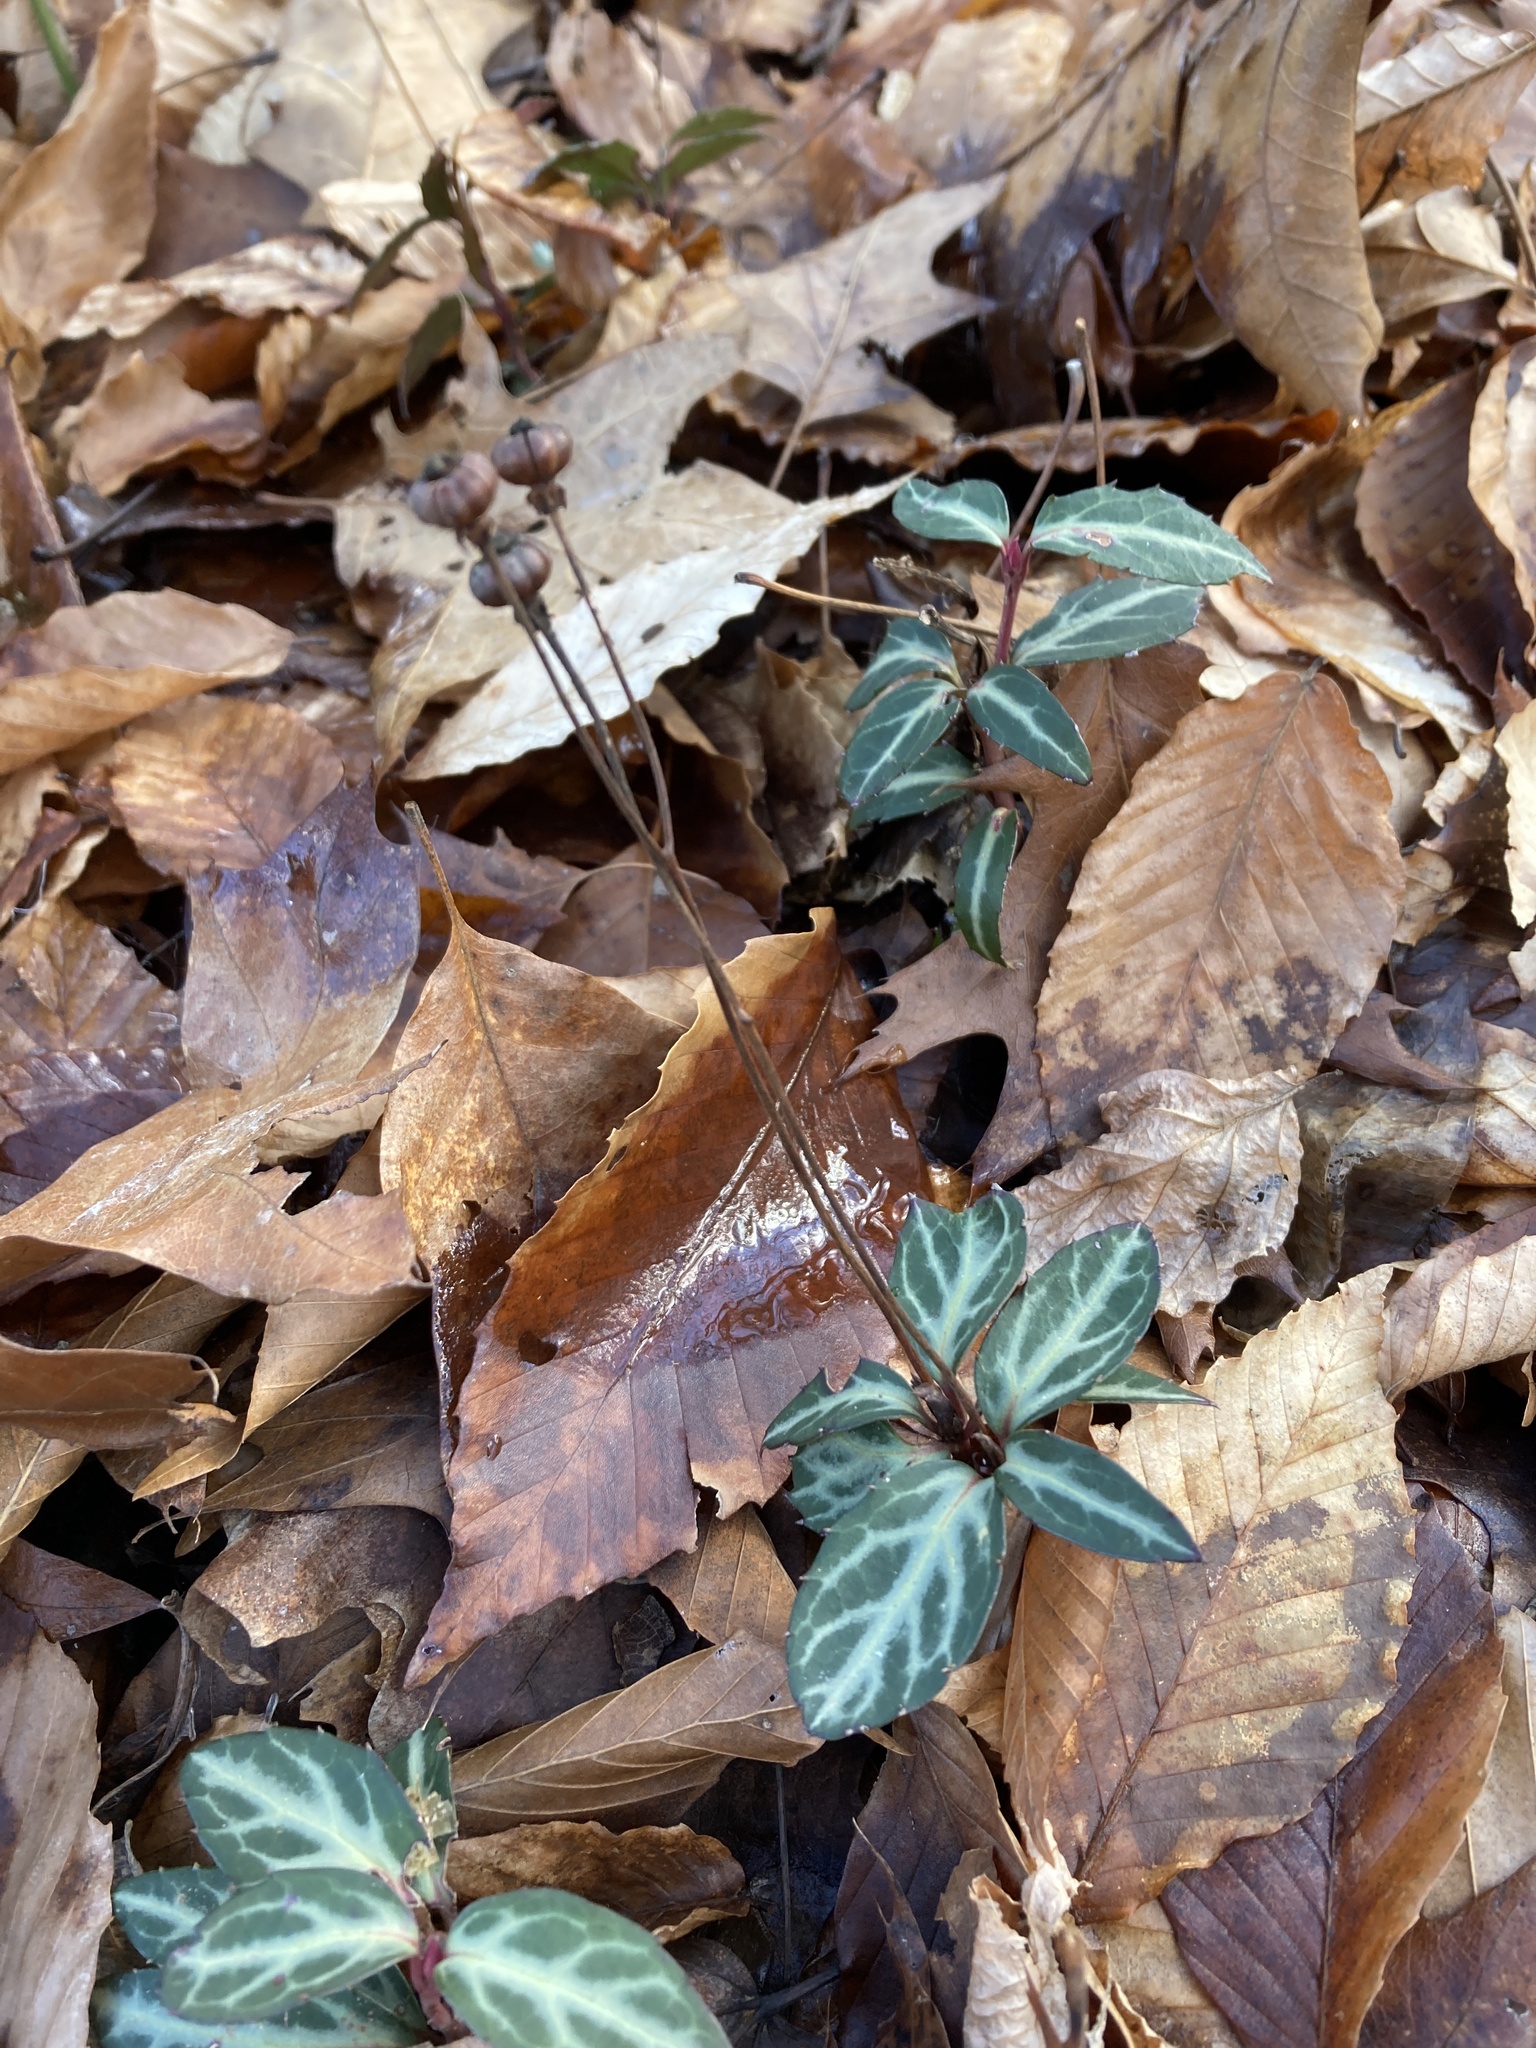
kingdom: Plantae
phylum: Tracheophyta
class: Magnoliopsida
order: Ericales
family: Ericaceae
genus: Chimaphila
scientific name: Chimaphila maculata
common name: Spotted pipsissewa
